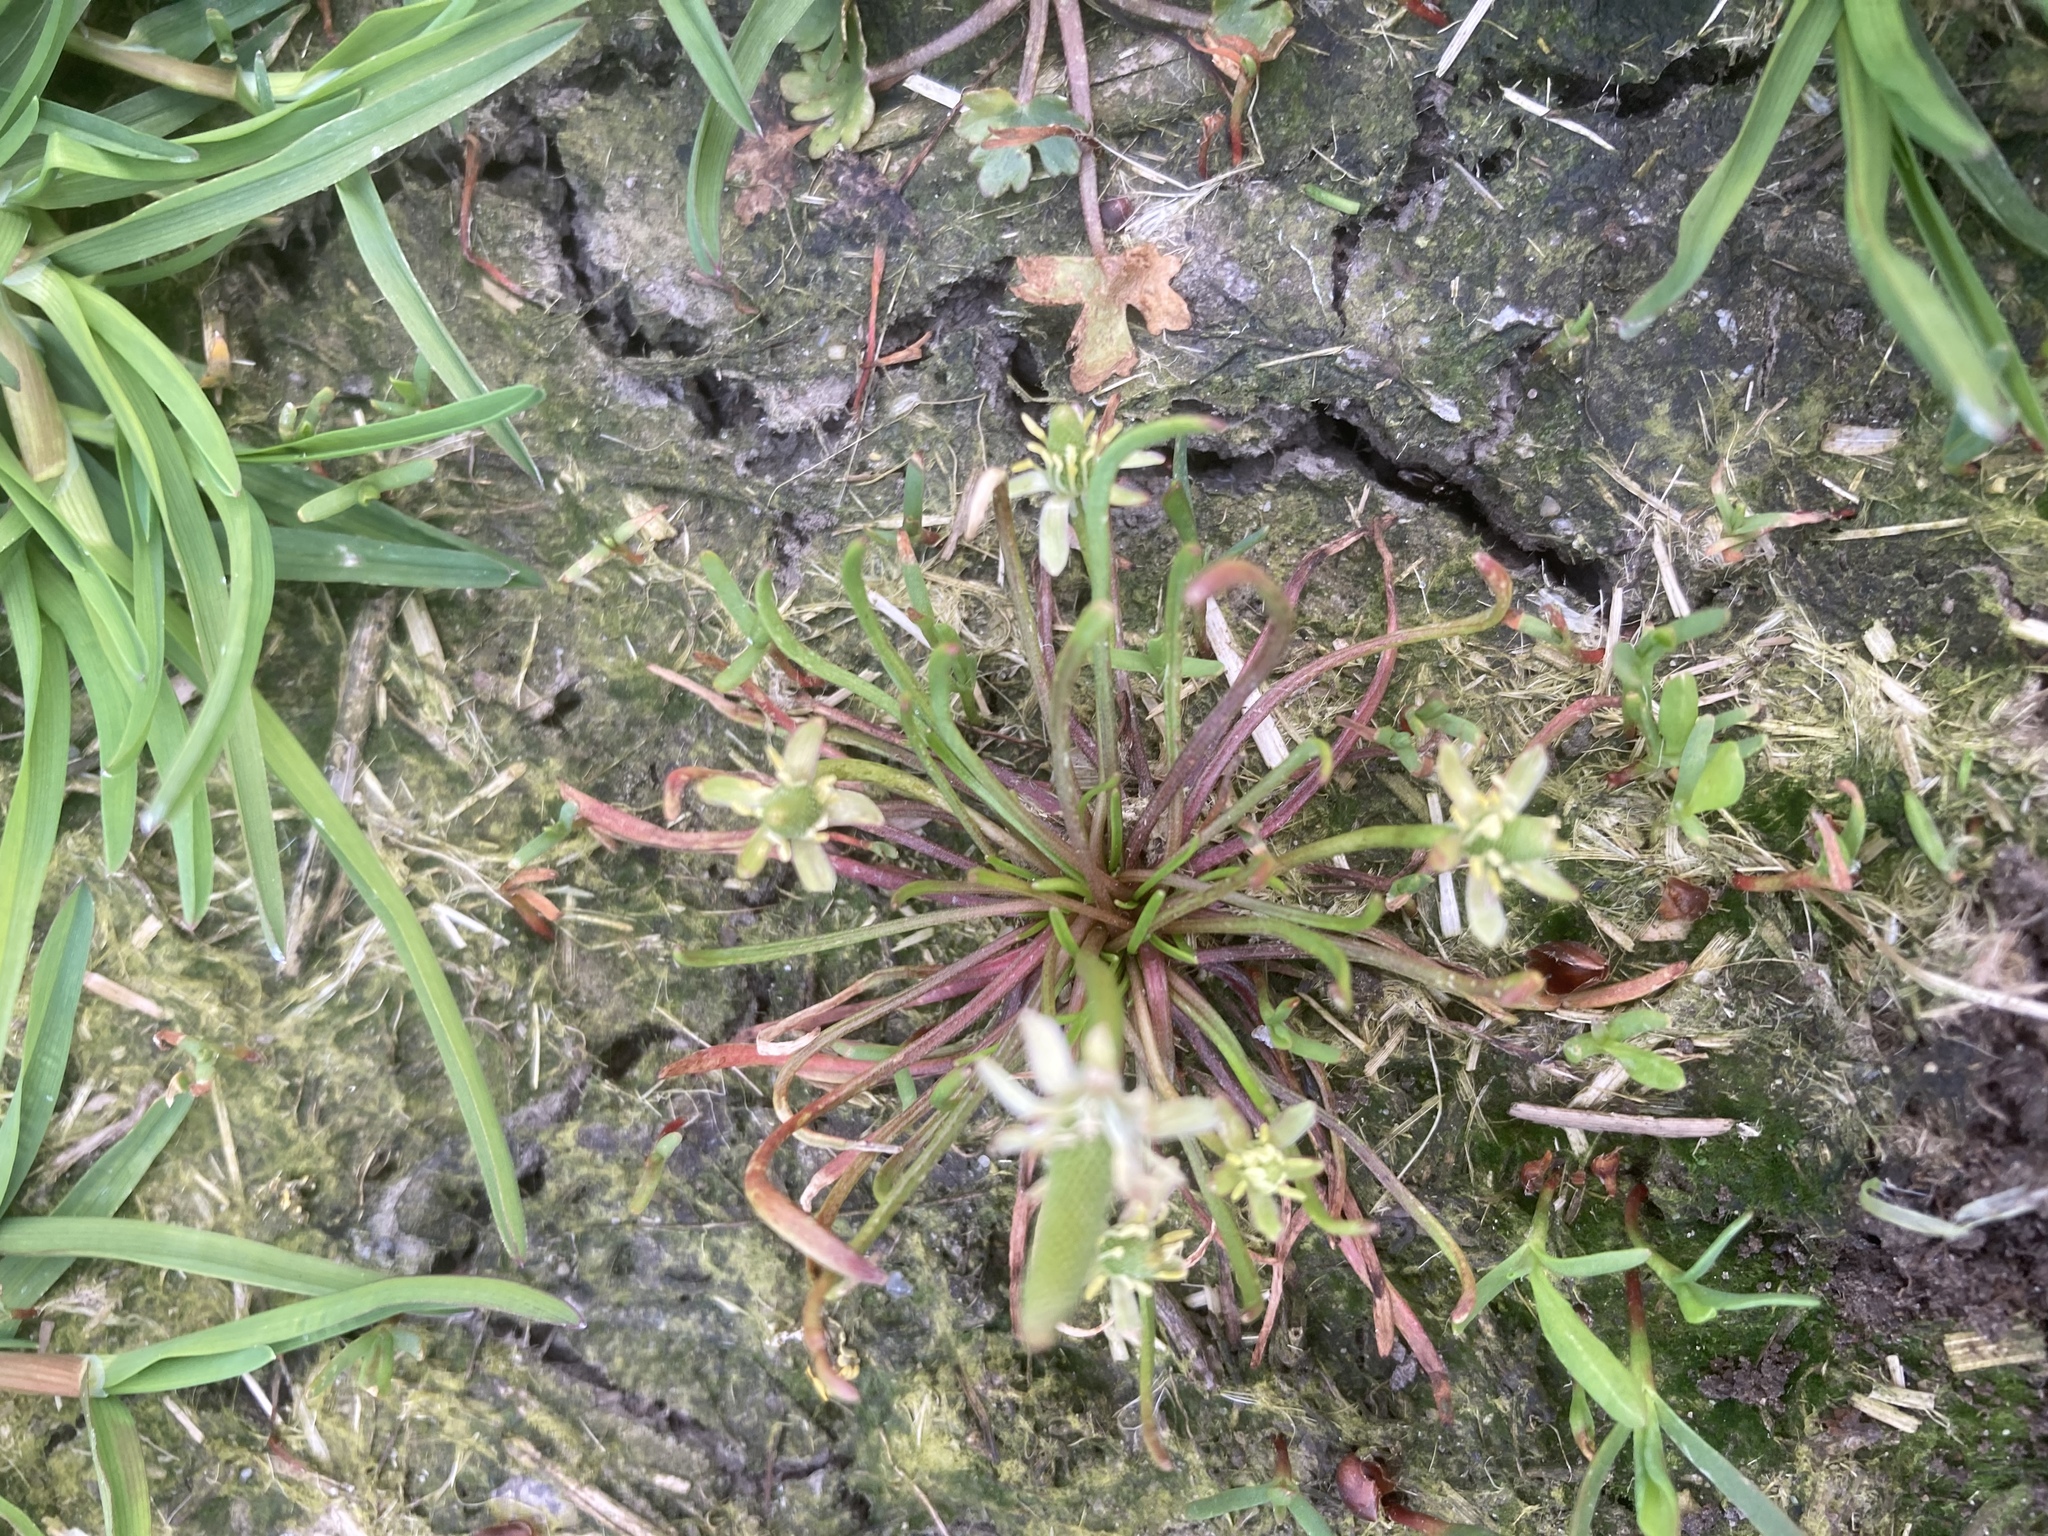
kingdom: Plantae
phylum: Tracheophyta
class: Magnoliopsida
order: Ranunculales
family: Ranunculaceae
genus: Myosurus
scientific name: Myosurus minimus
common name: Mousetail
